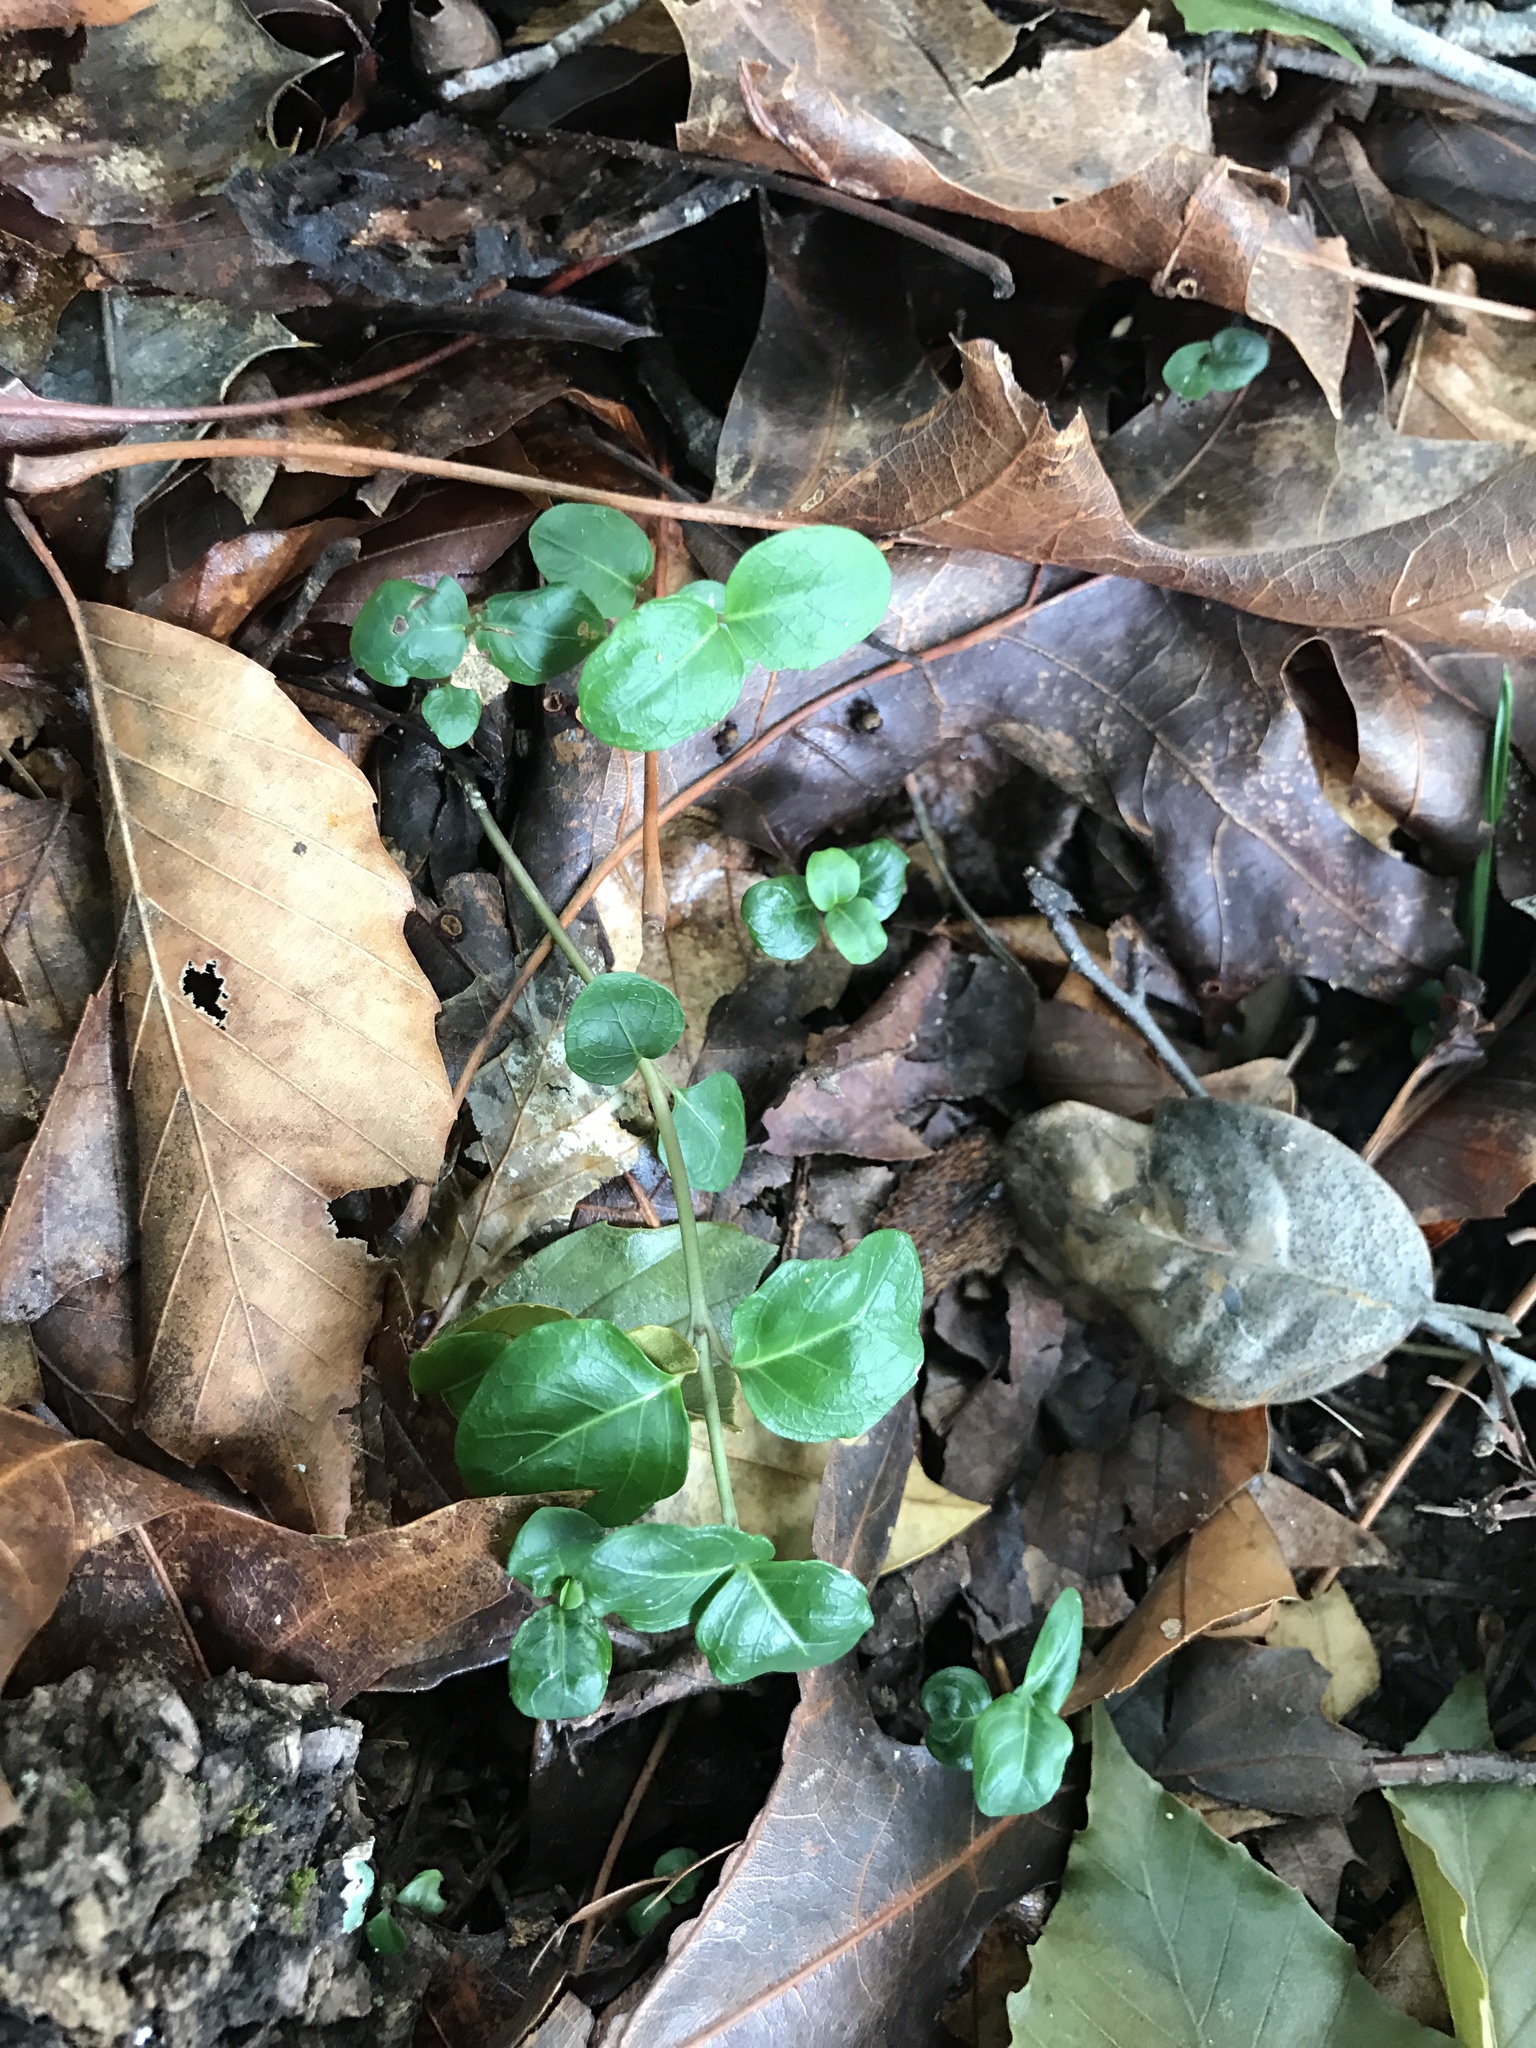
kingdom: Plantae
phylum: Tracheophyta
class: Magnoliopsida
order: Gentianales
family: Rubiaceae
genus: Mitchella
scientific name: Mitchella repens
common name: Partridge-berry
